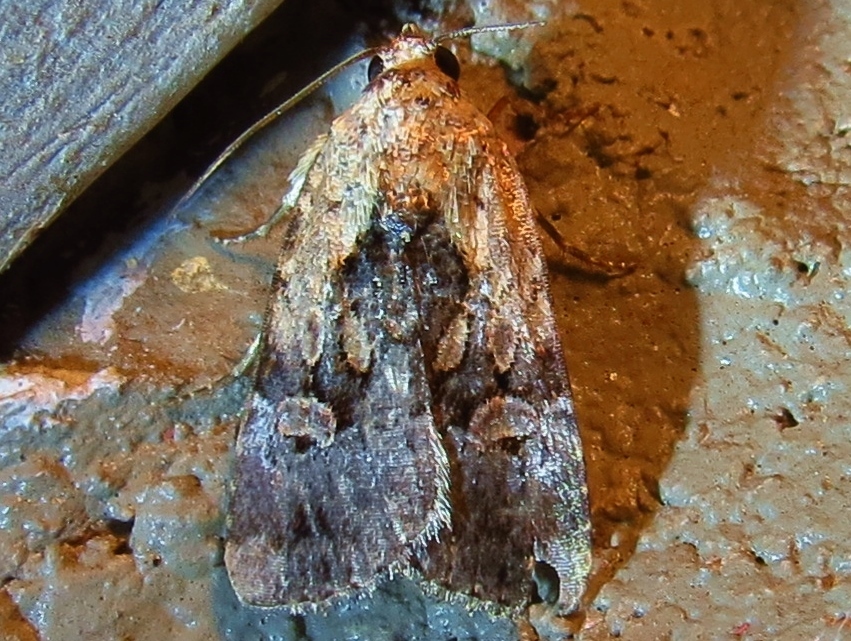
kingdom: Animalia
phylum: Arthropoda
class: Insecta
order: Lepidoptera
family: Noctuidae
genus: Elaphria
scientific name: Elaphria chalcedonia
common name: Chalcedony midget
